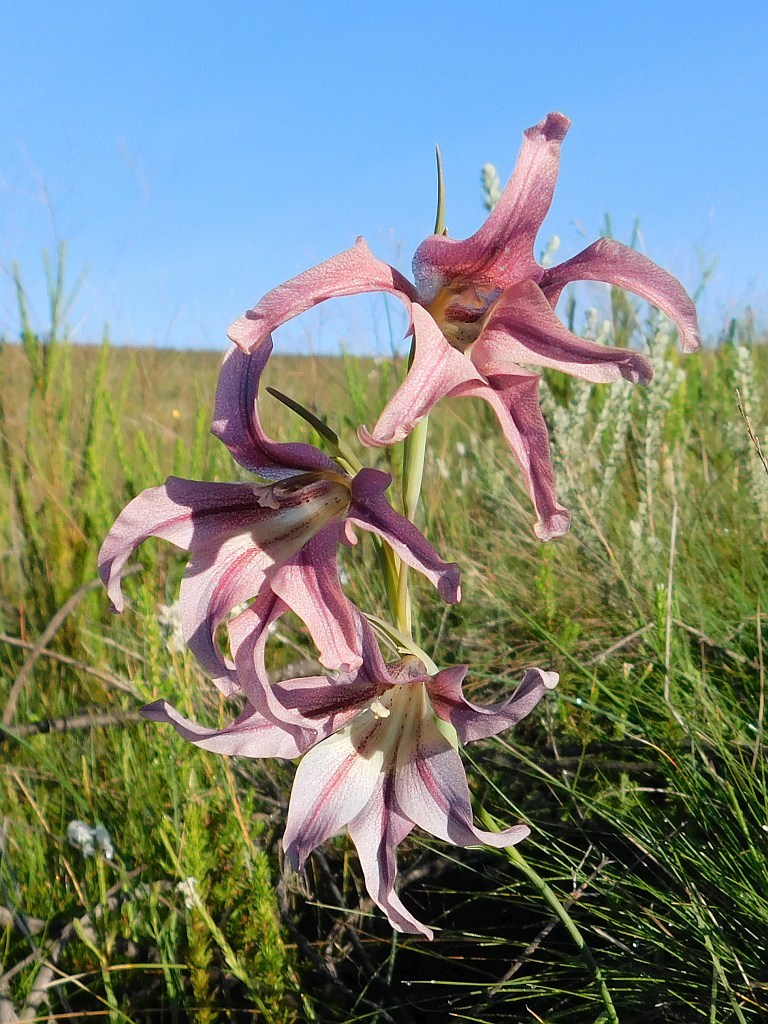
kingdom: Plantae
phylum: Tracheophyta
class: Liliopsida
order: Asparagales
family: Iridaceae
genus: Gladiolus
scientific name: Gladiolus liliaceus
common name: Large brown afrikaner
